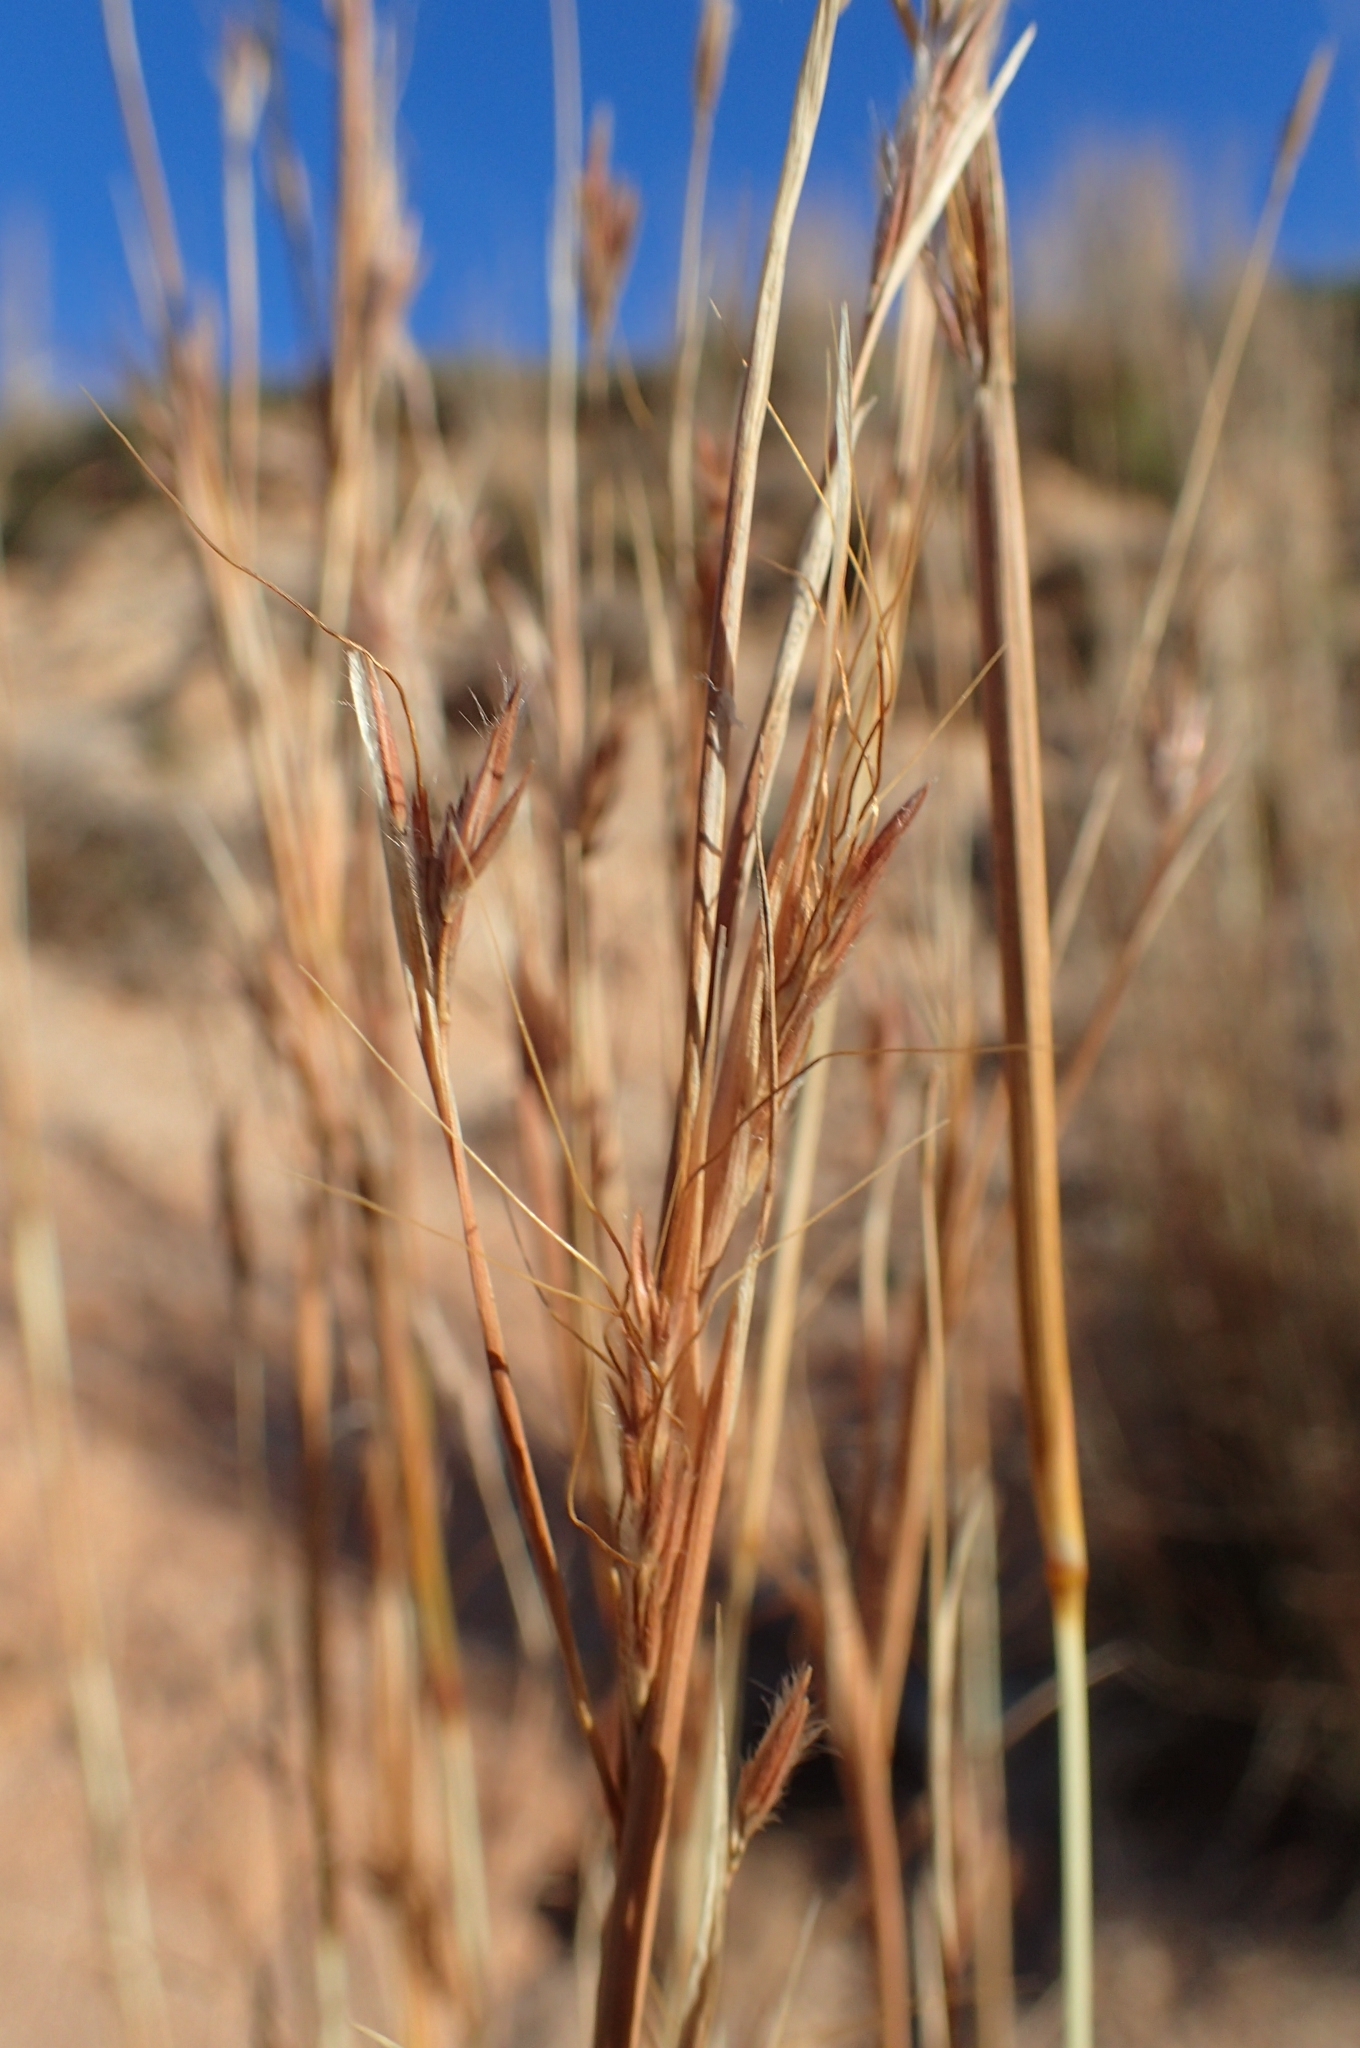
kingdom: Plantae
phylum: Tracheophyta
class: Liliopsida
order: Poales
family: Poaceae
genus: Hyparrhenia
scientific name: Hyparrhenia hirta
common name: Thatching grass
